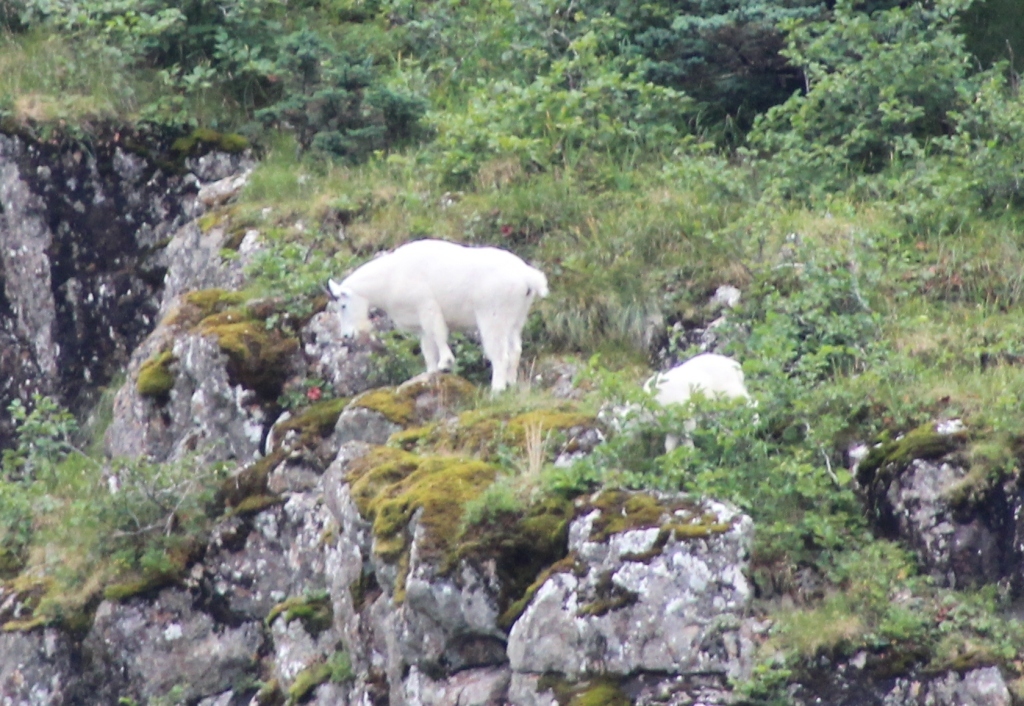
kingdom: Animalia
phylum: Chordata
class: Mammalia
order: Artiodactyla
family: Bovidae
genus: Oreamnos
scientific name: Oreamnos americanus
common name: Mountain goat
